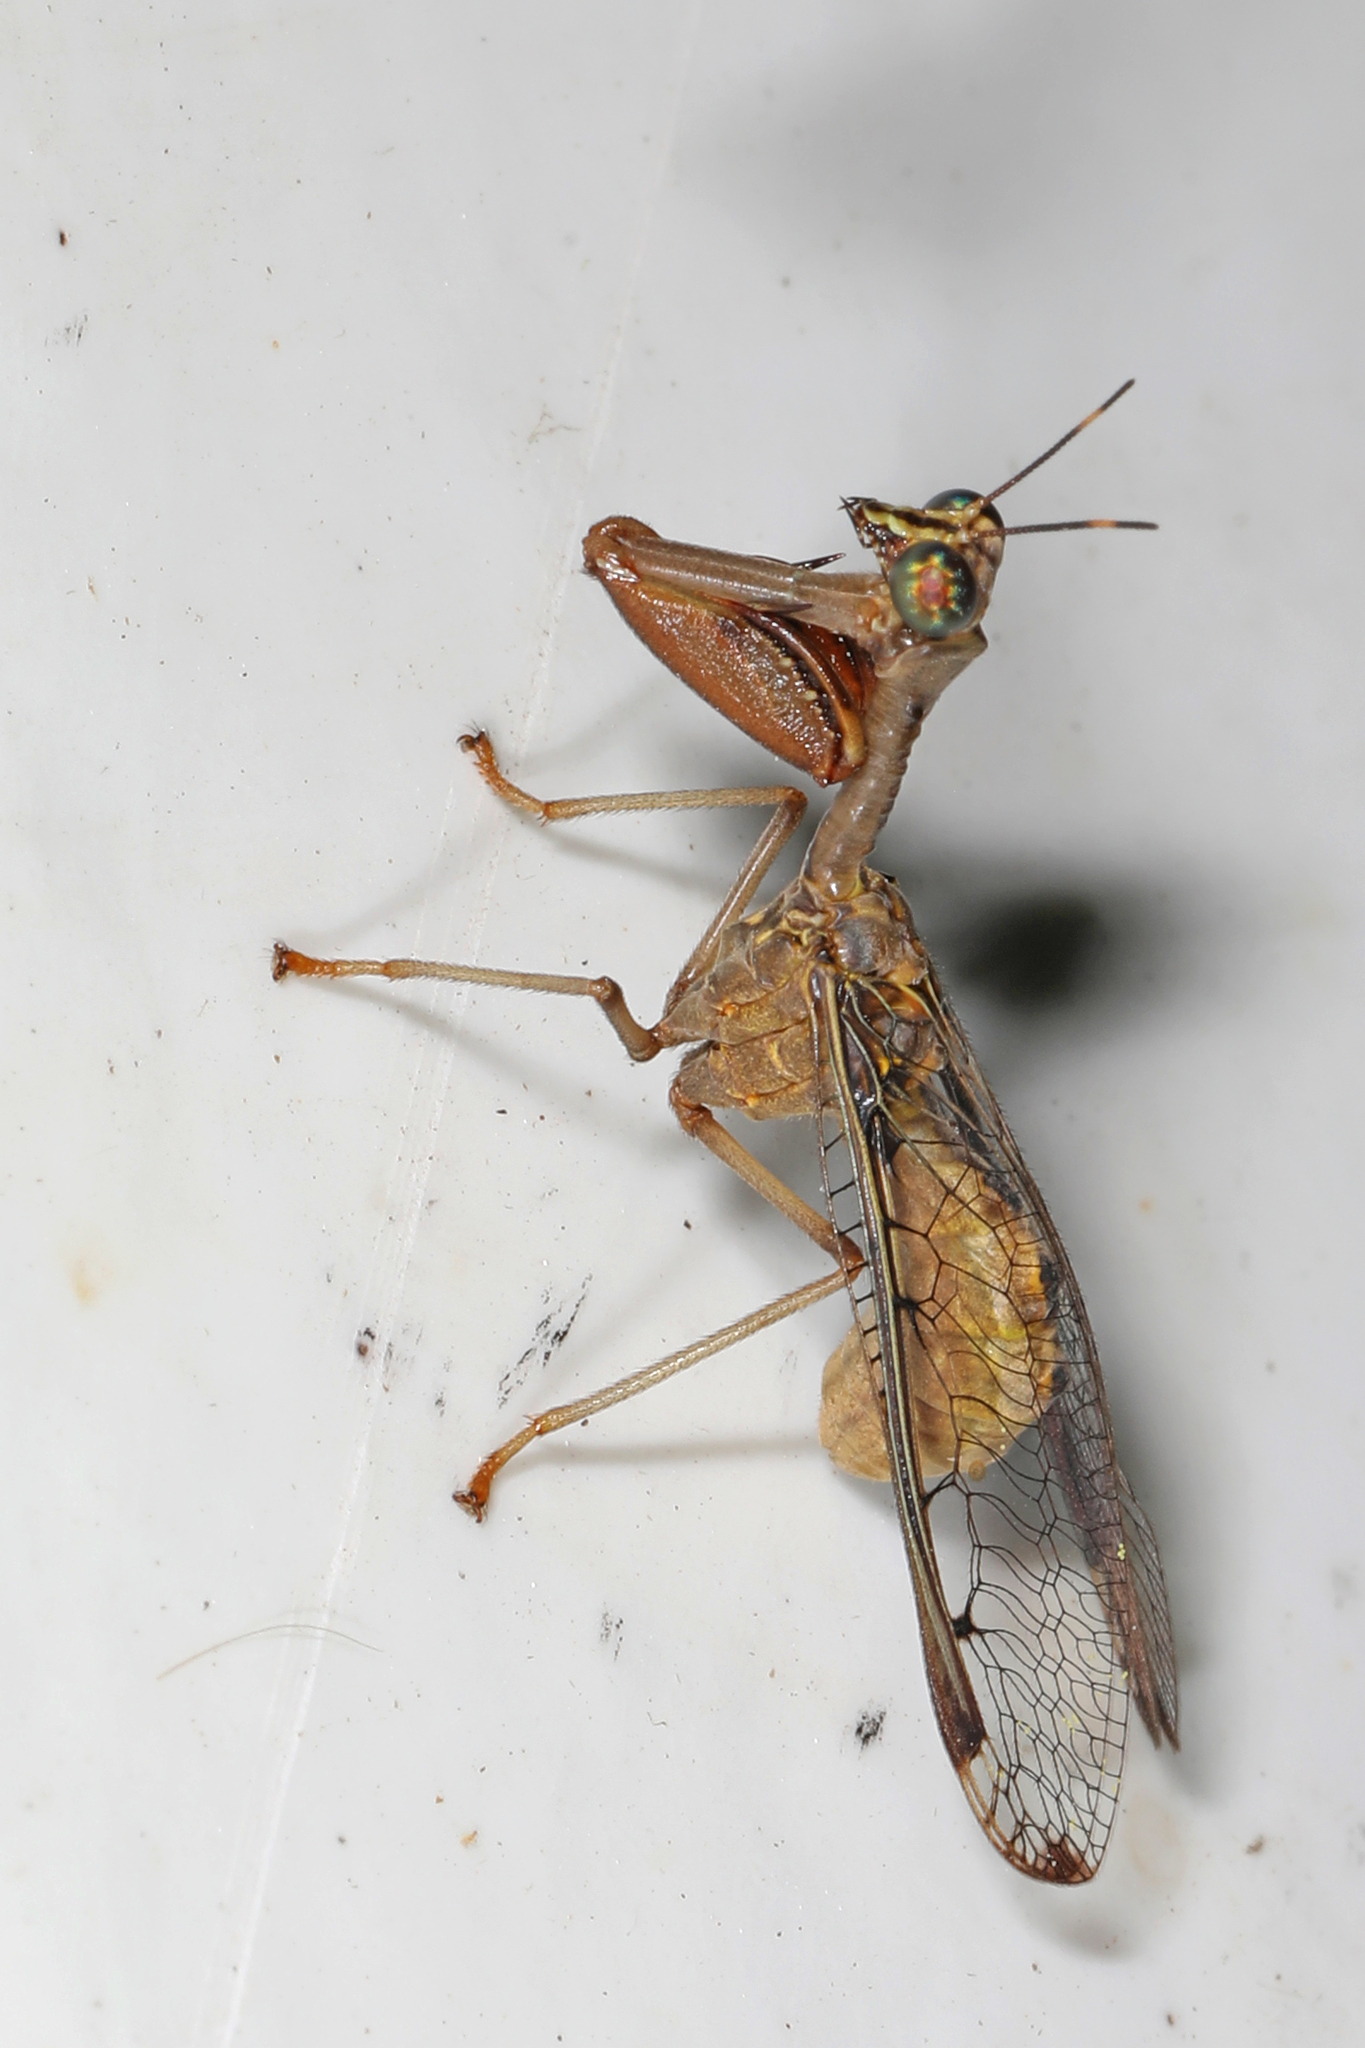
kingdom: Animalia
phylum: Arthropoda
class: Insecta
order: Neuroptera
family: Mantispidae
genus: Dicromantispa
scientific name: Dicromantispa interrupta
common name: Four-spotted mantidfly
